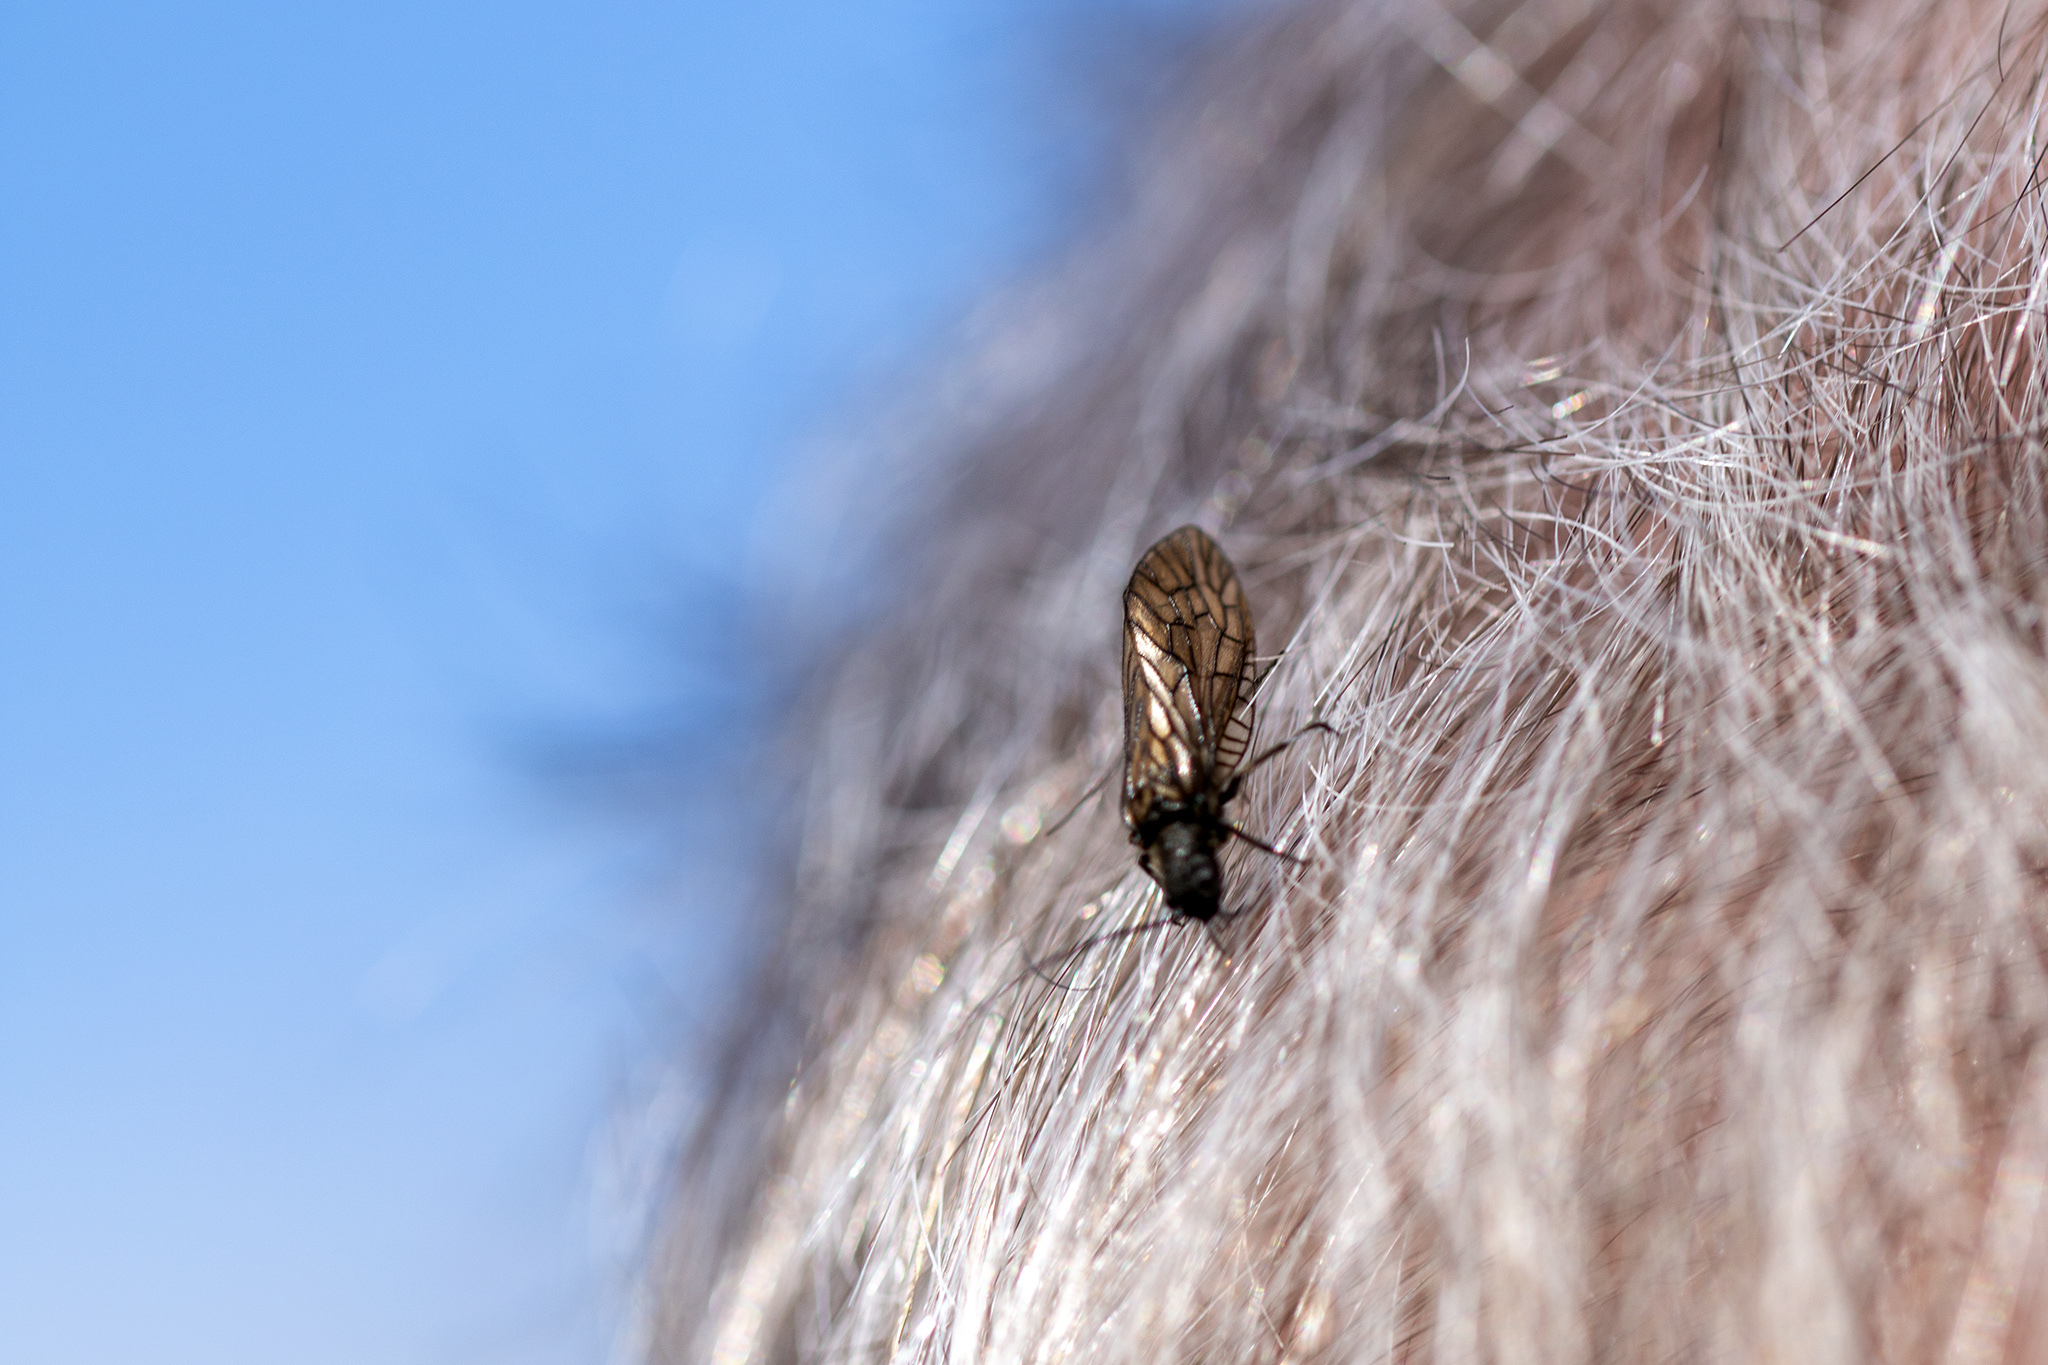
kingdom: Animalia
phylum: Arthropoda
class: Insecta
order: Megaloptera
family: Sialidae
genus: Sialis
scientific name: Sialis
